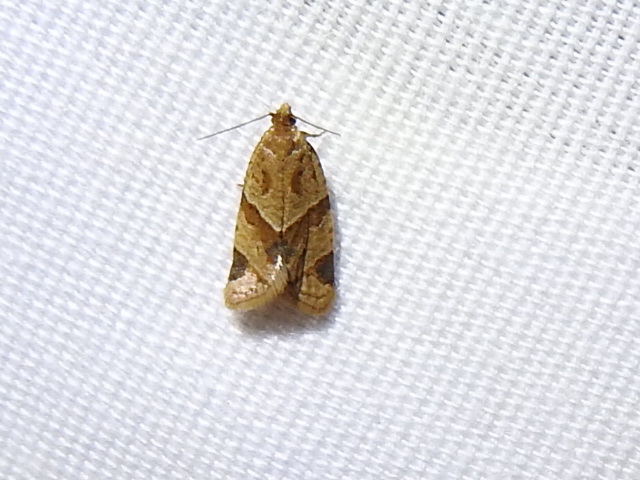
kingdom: Animalia
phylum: Arthropoda
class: Insecta
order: Lepidoptera
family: Tortricidae
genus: Clepsis
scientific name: Clepsis peritana
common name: Garden tortrix
